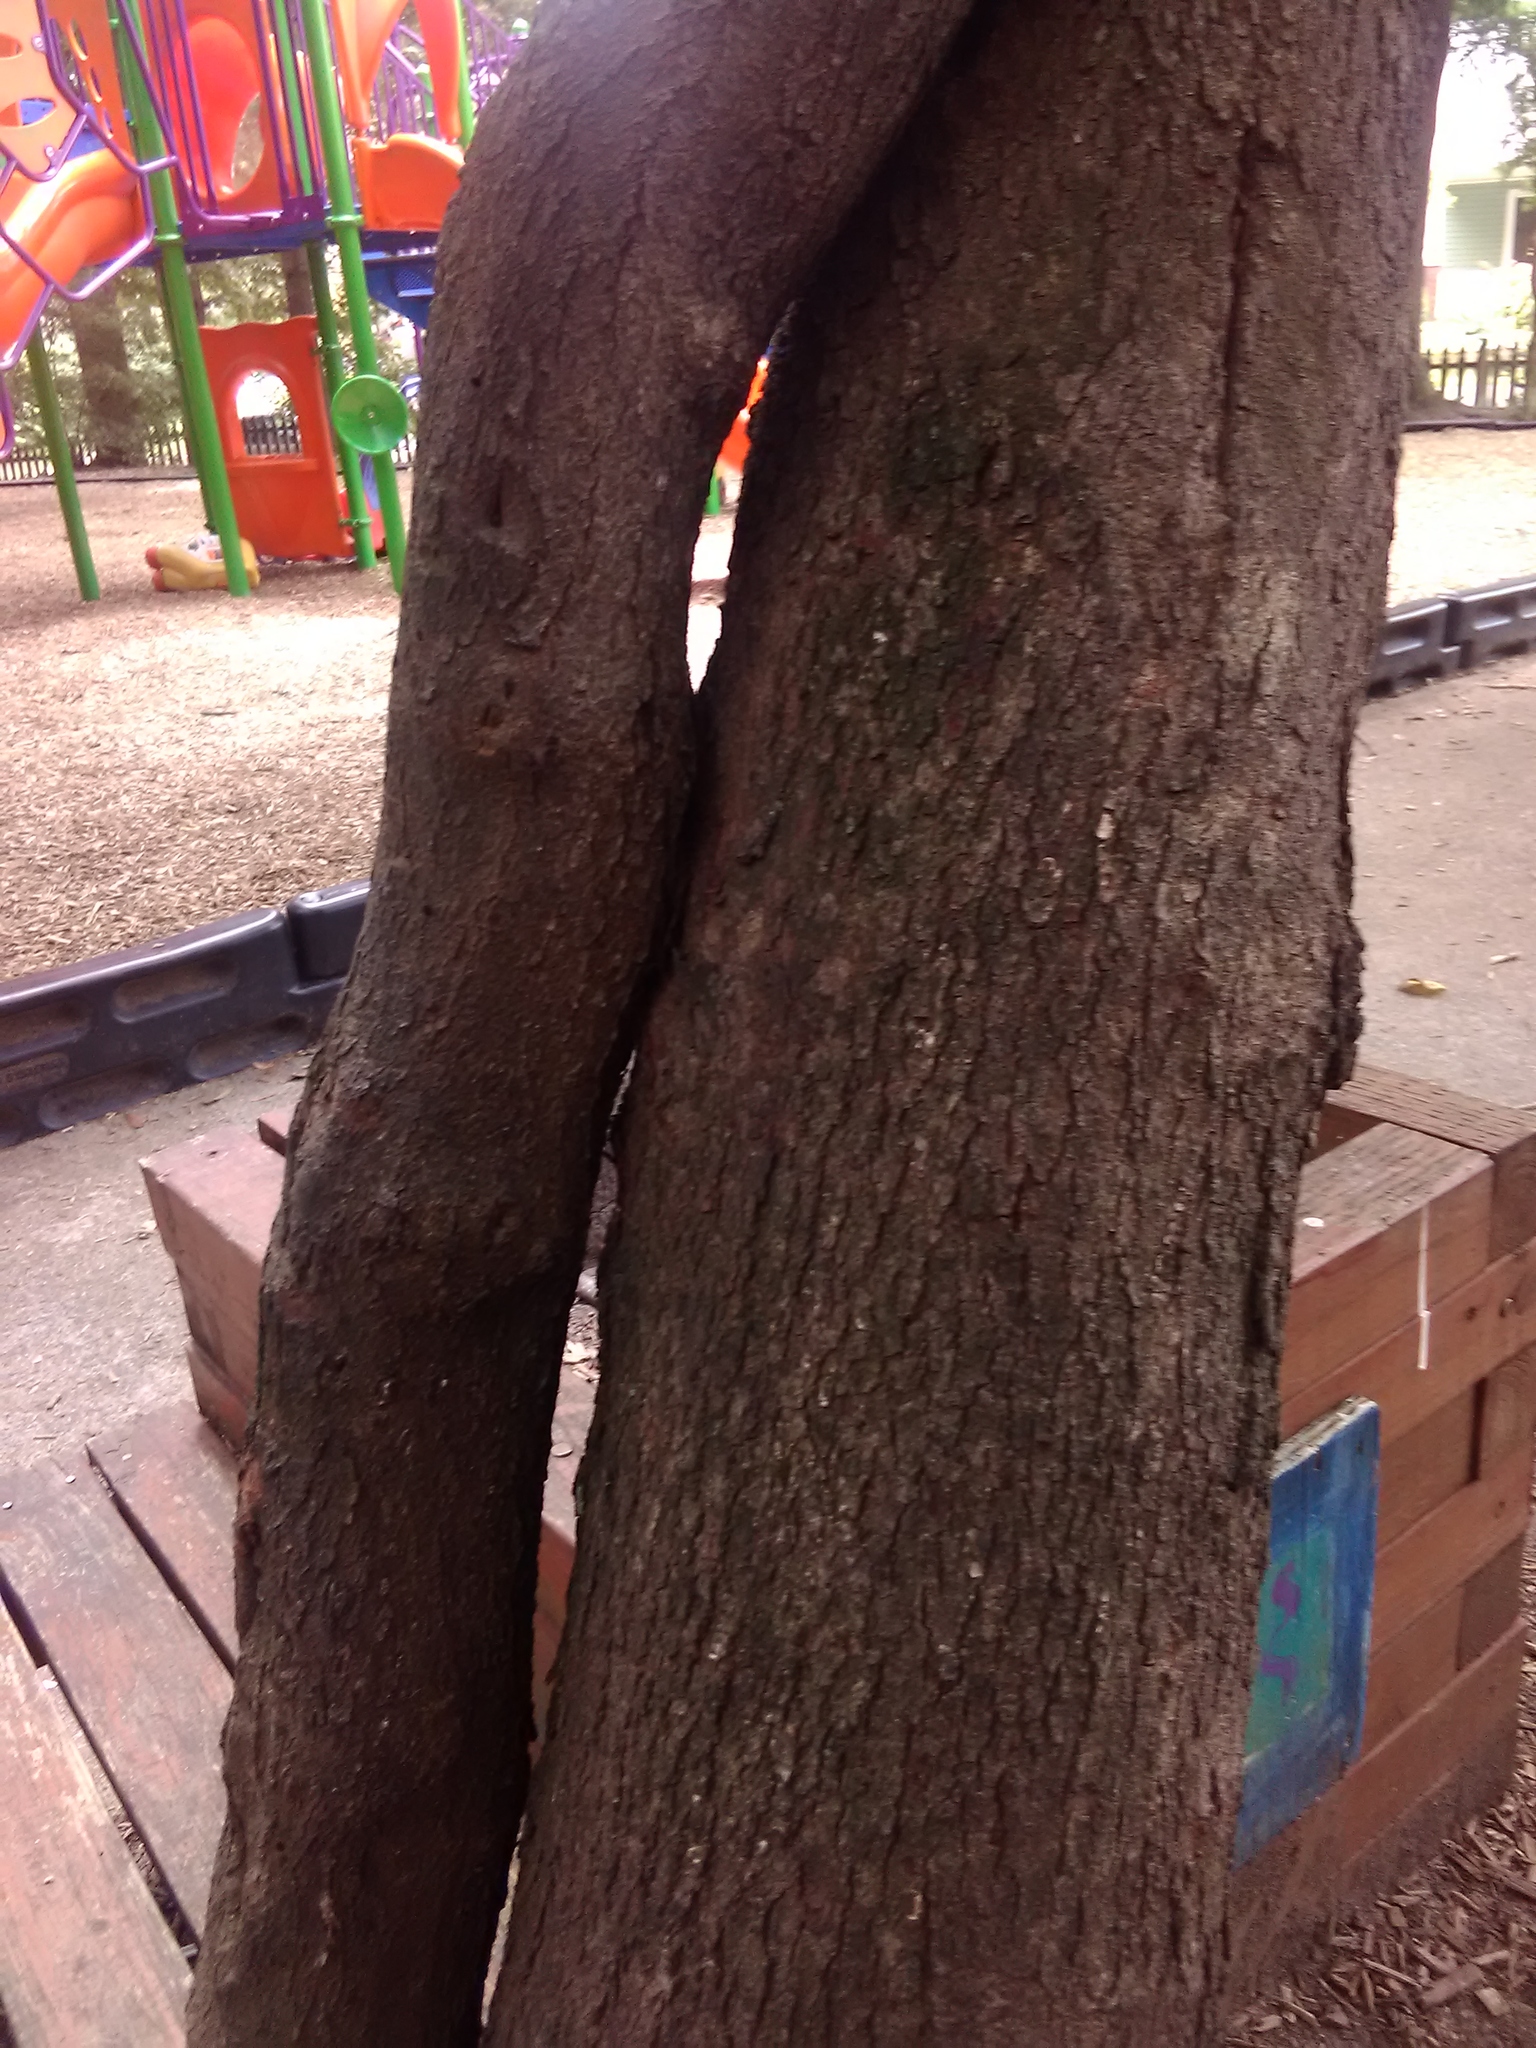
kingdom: Plantae
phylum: Tracheophyta
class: Magnoliopsida
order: Fabales
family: Fabaceae
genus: Cercis
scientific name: Cercis canadensis
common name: Eastern redbud
